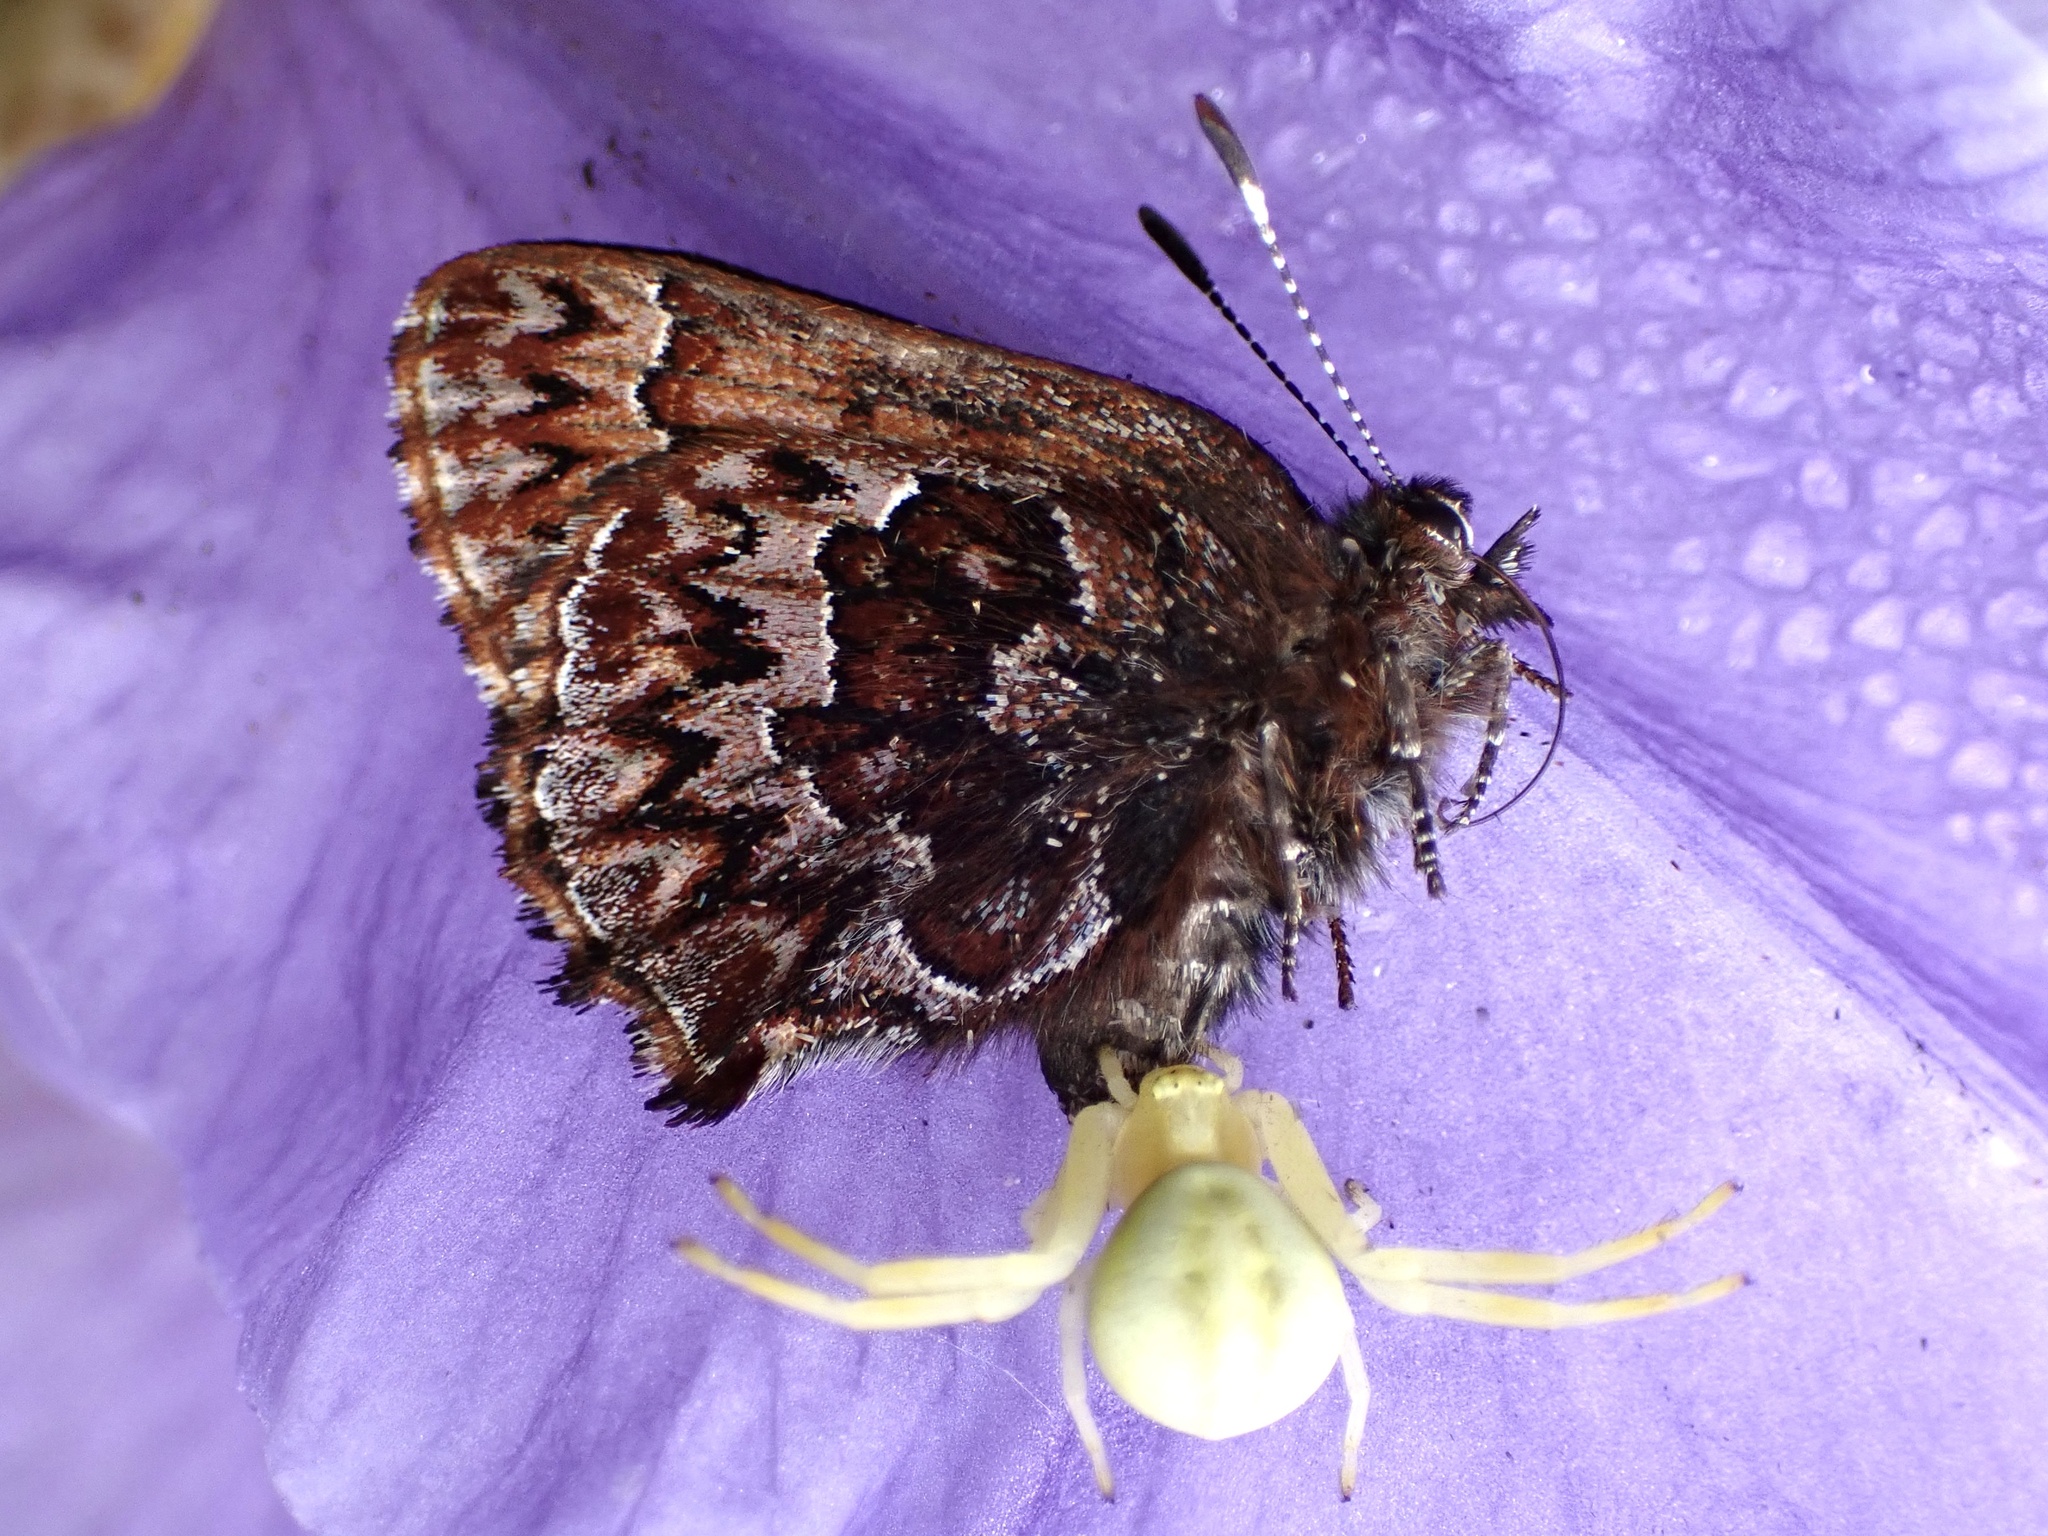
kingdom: Animalia
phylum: Arthropoda
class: Insecta
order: Lepidoptera
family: Lycaenidae
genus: Incisalia
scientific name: Incisalia eryphon
